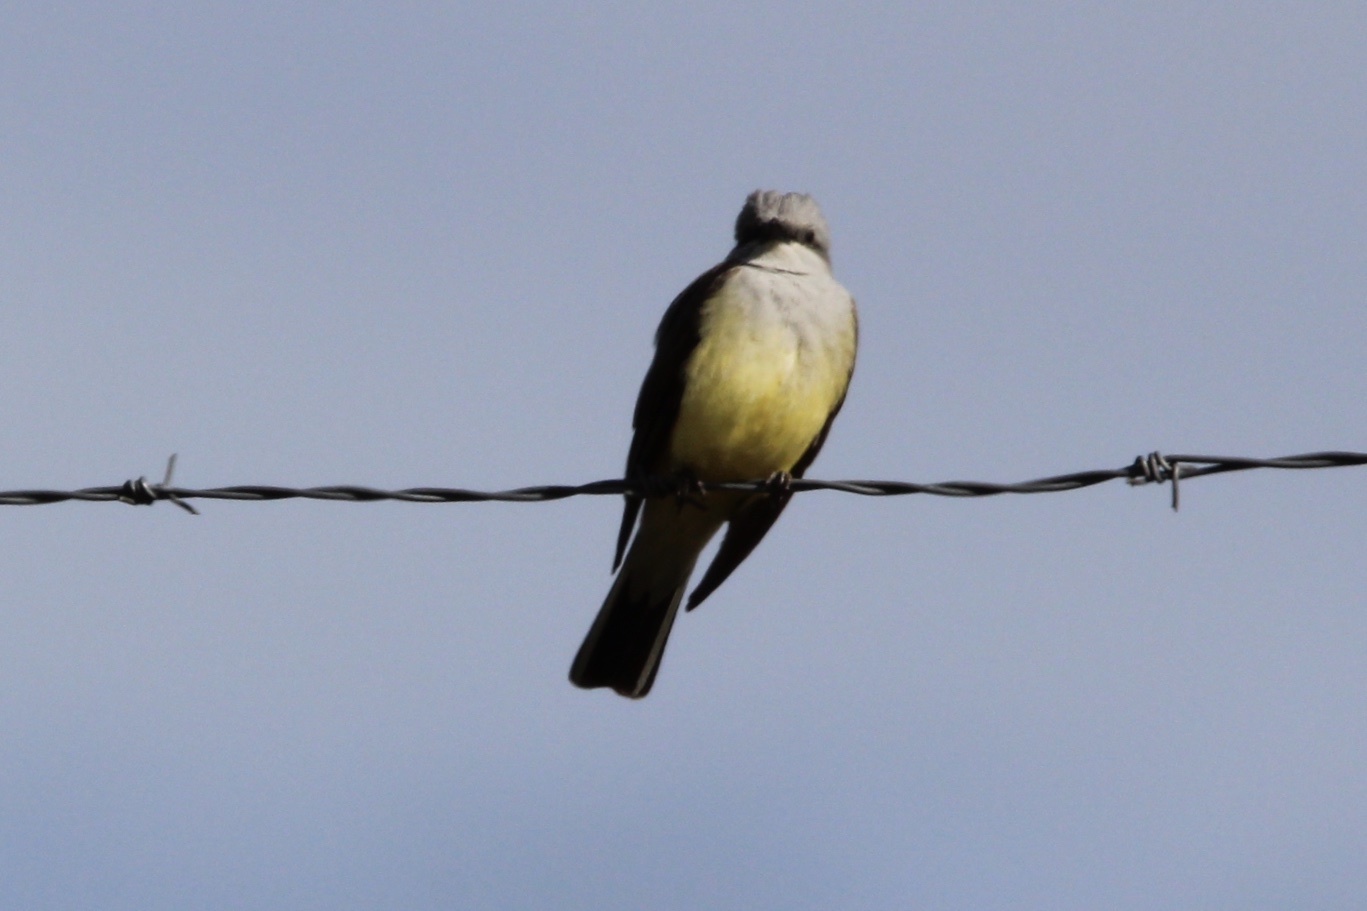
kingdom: Animalia
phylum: Chordata
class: Aves
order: Passeriformes
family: Tyrannidae
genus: Tyrannus
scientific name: Tyrannus verticalis
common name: Western kingbird
